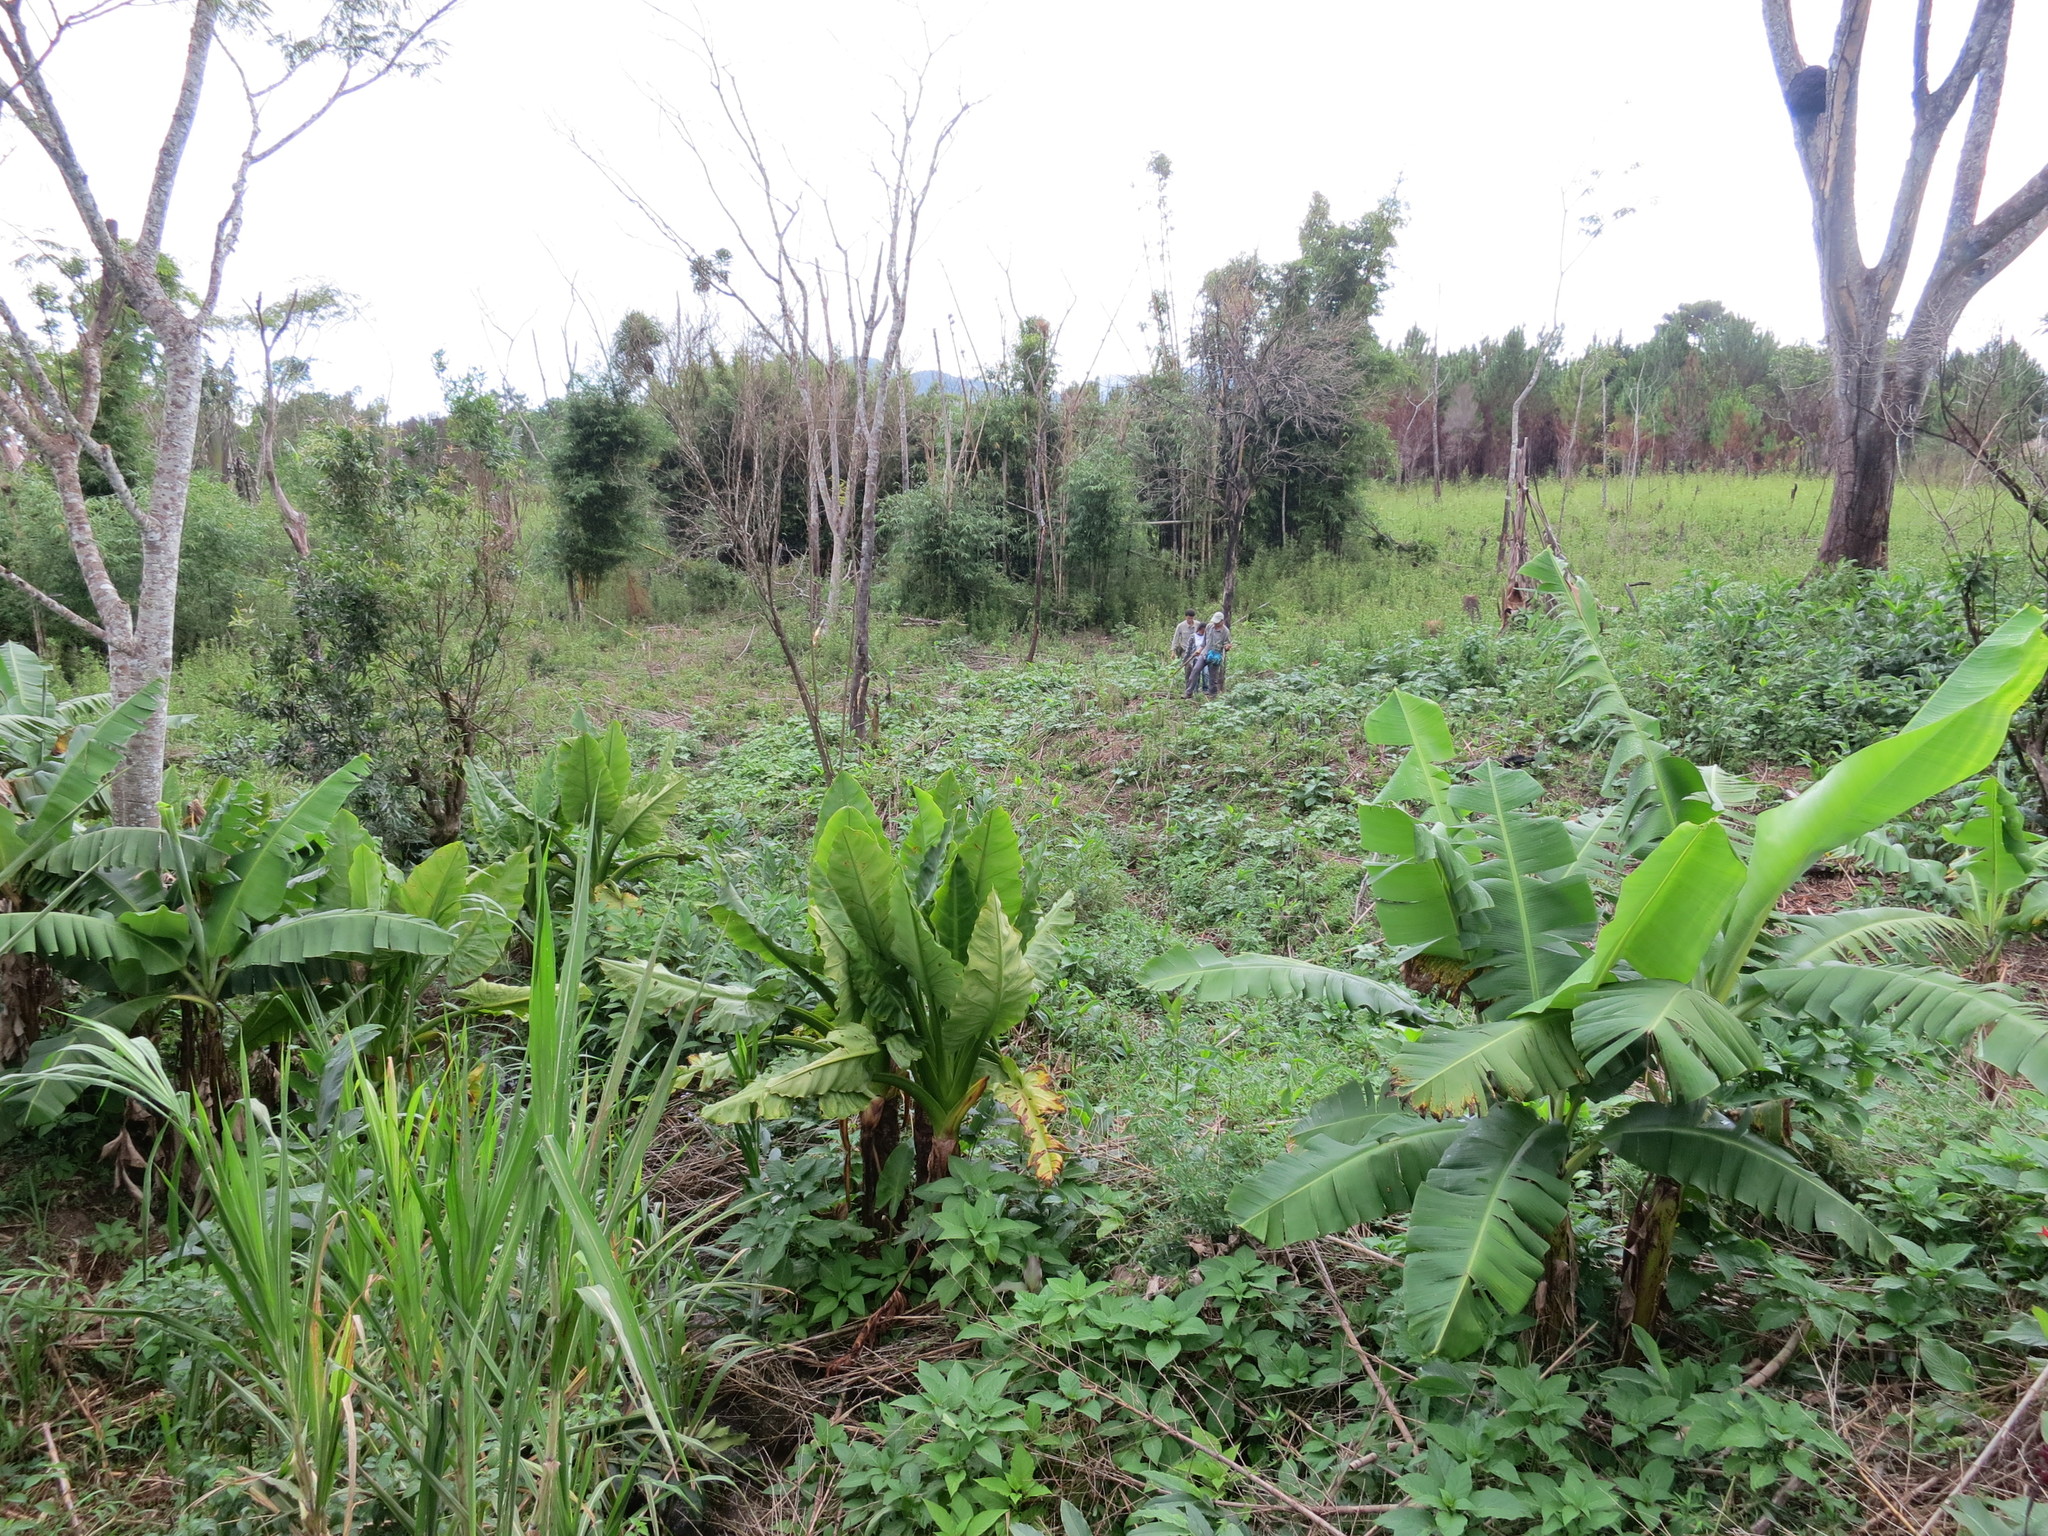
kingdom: Plantae
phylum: Tracheophyta
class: Liliopsida
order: Poales
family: Poaceae
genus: Bambusa
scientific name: Bambusa vulgaris
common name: Common bamboo
